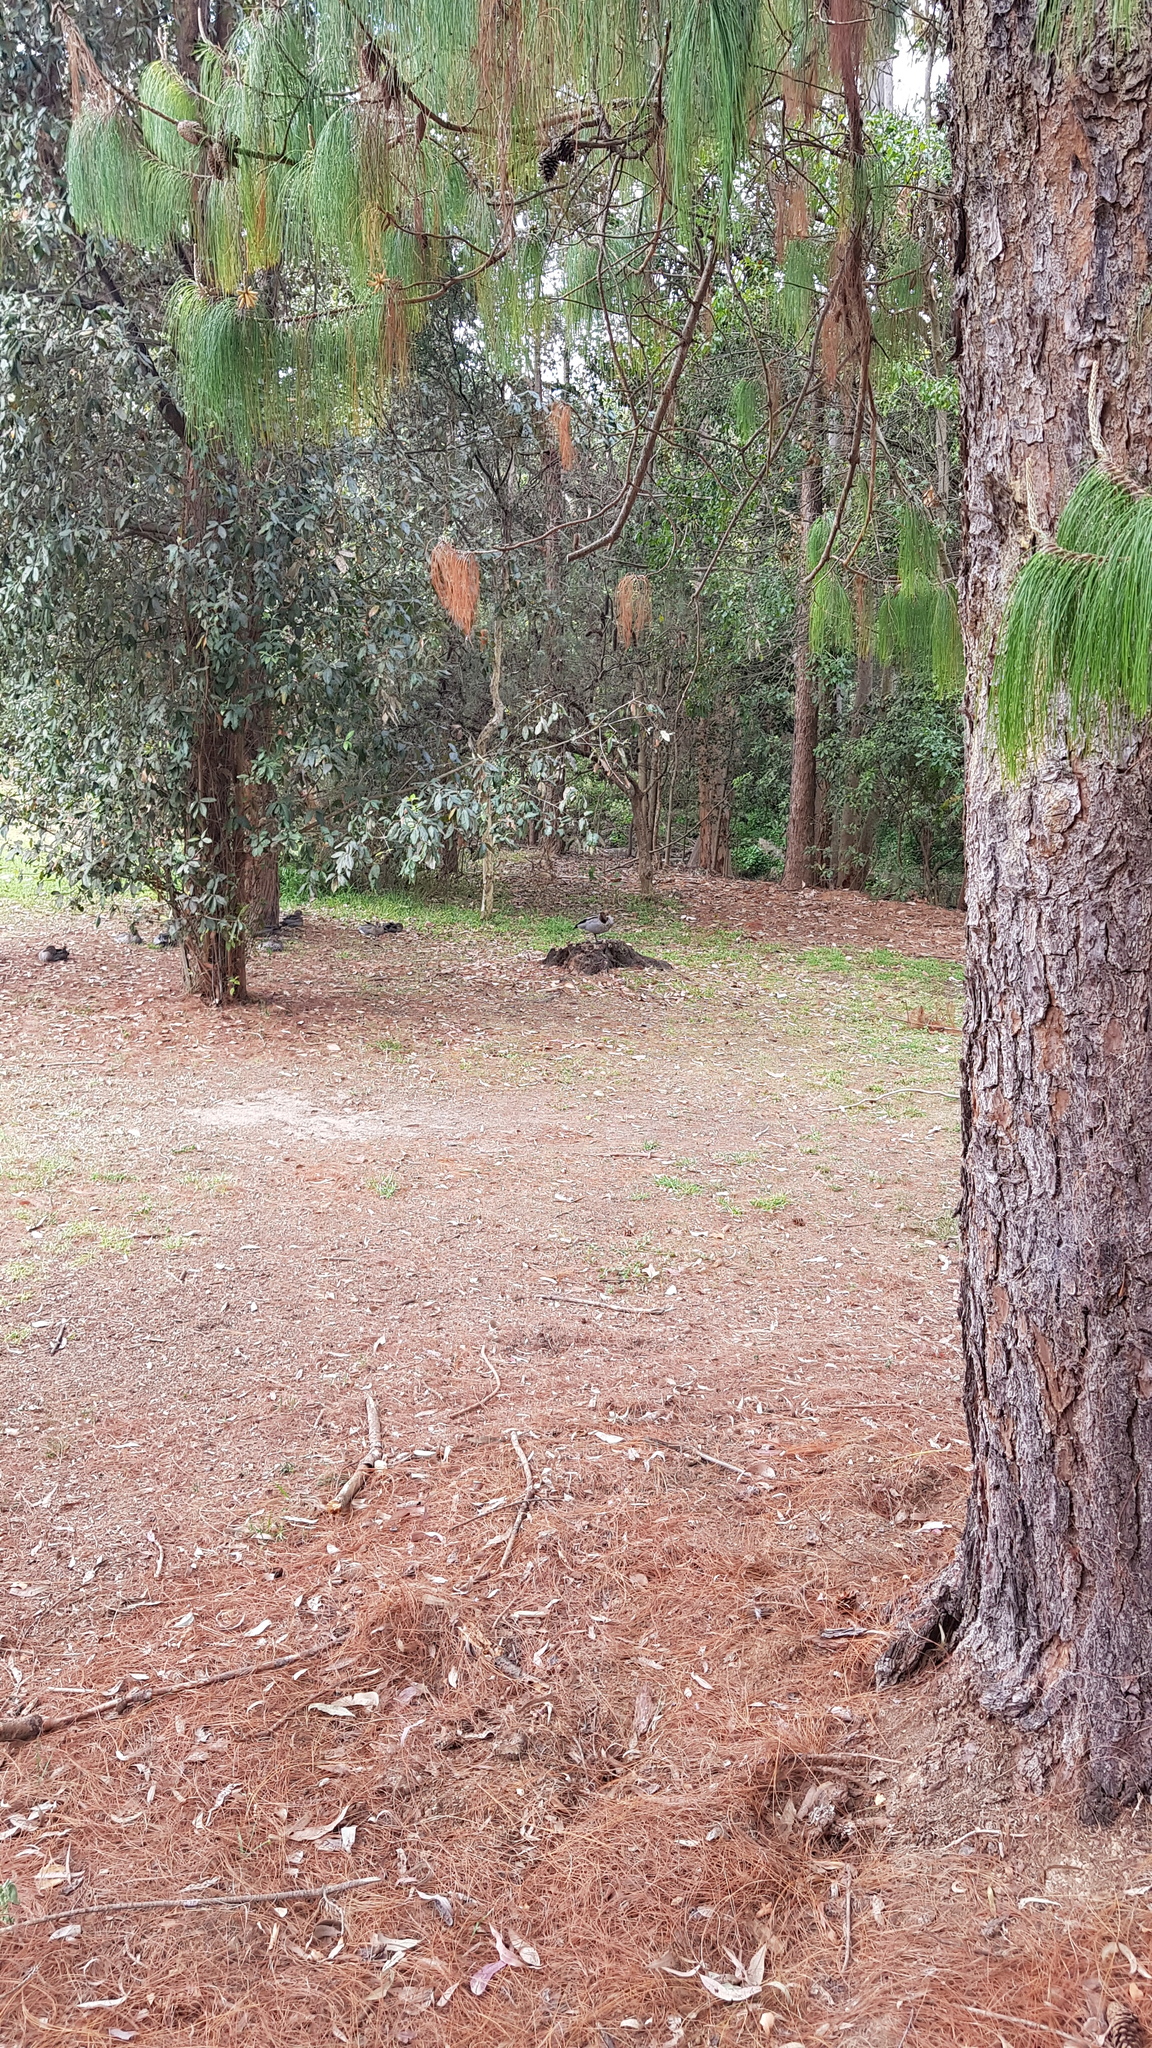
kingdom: Animalia
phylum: Chordata
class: Aves
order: Anseriformes
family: Anatidae
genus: Chenonetta
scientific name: Chenonetta jubata
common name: Maned duck
